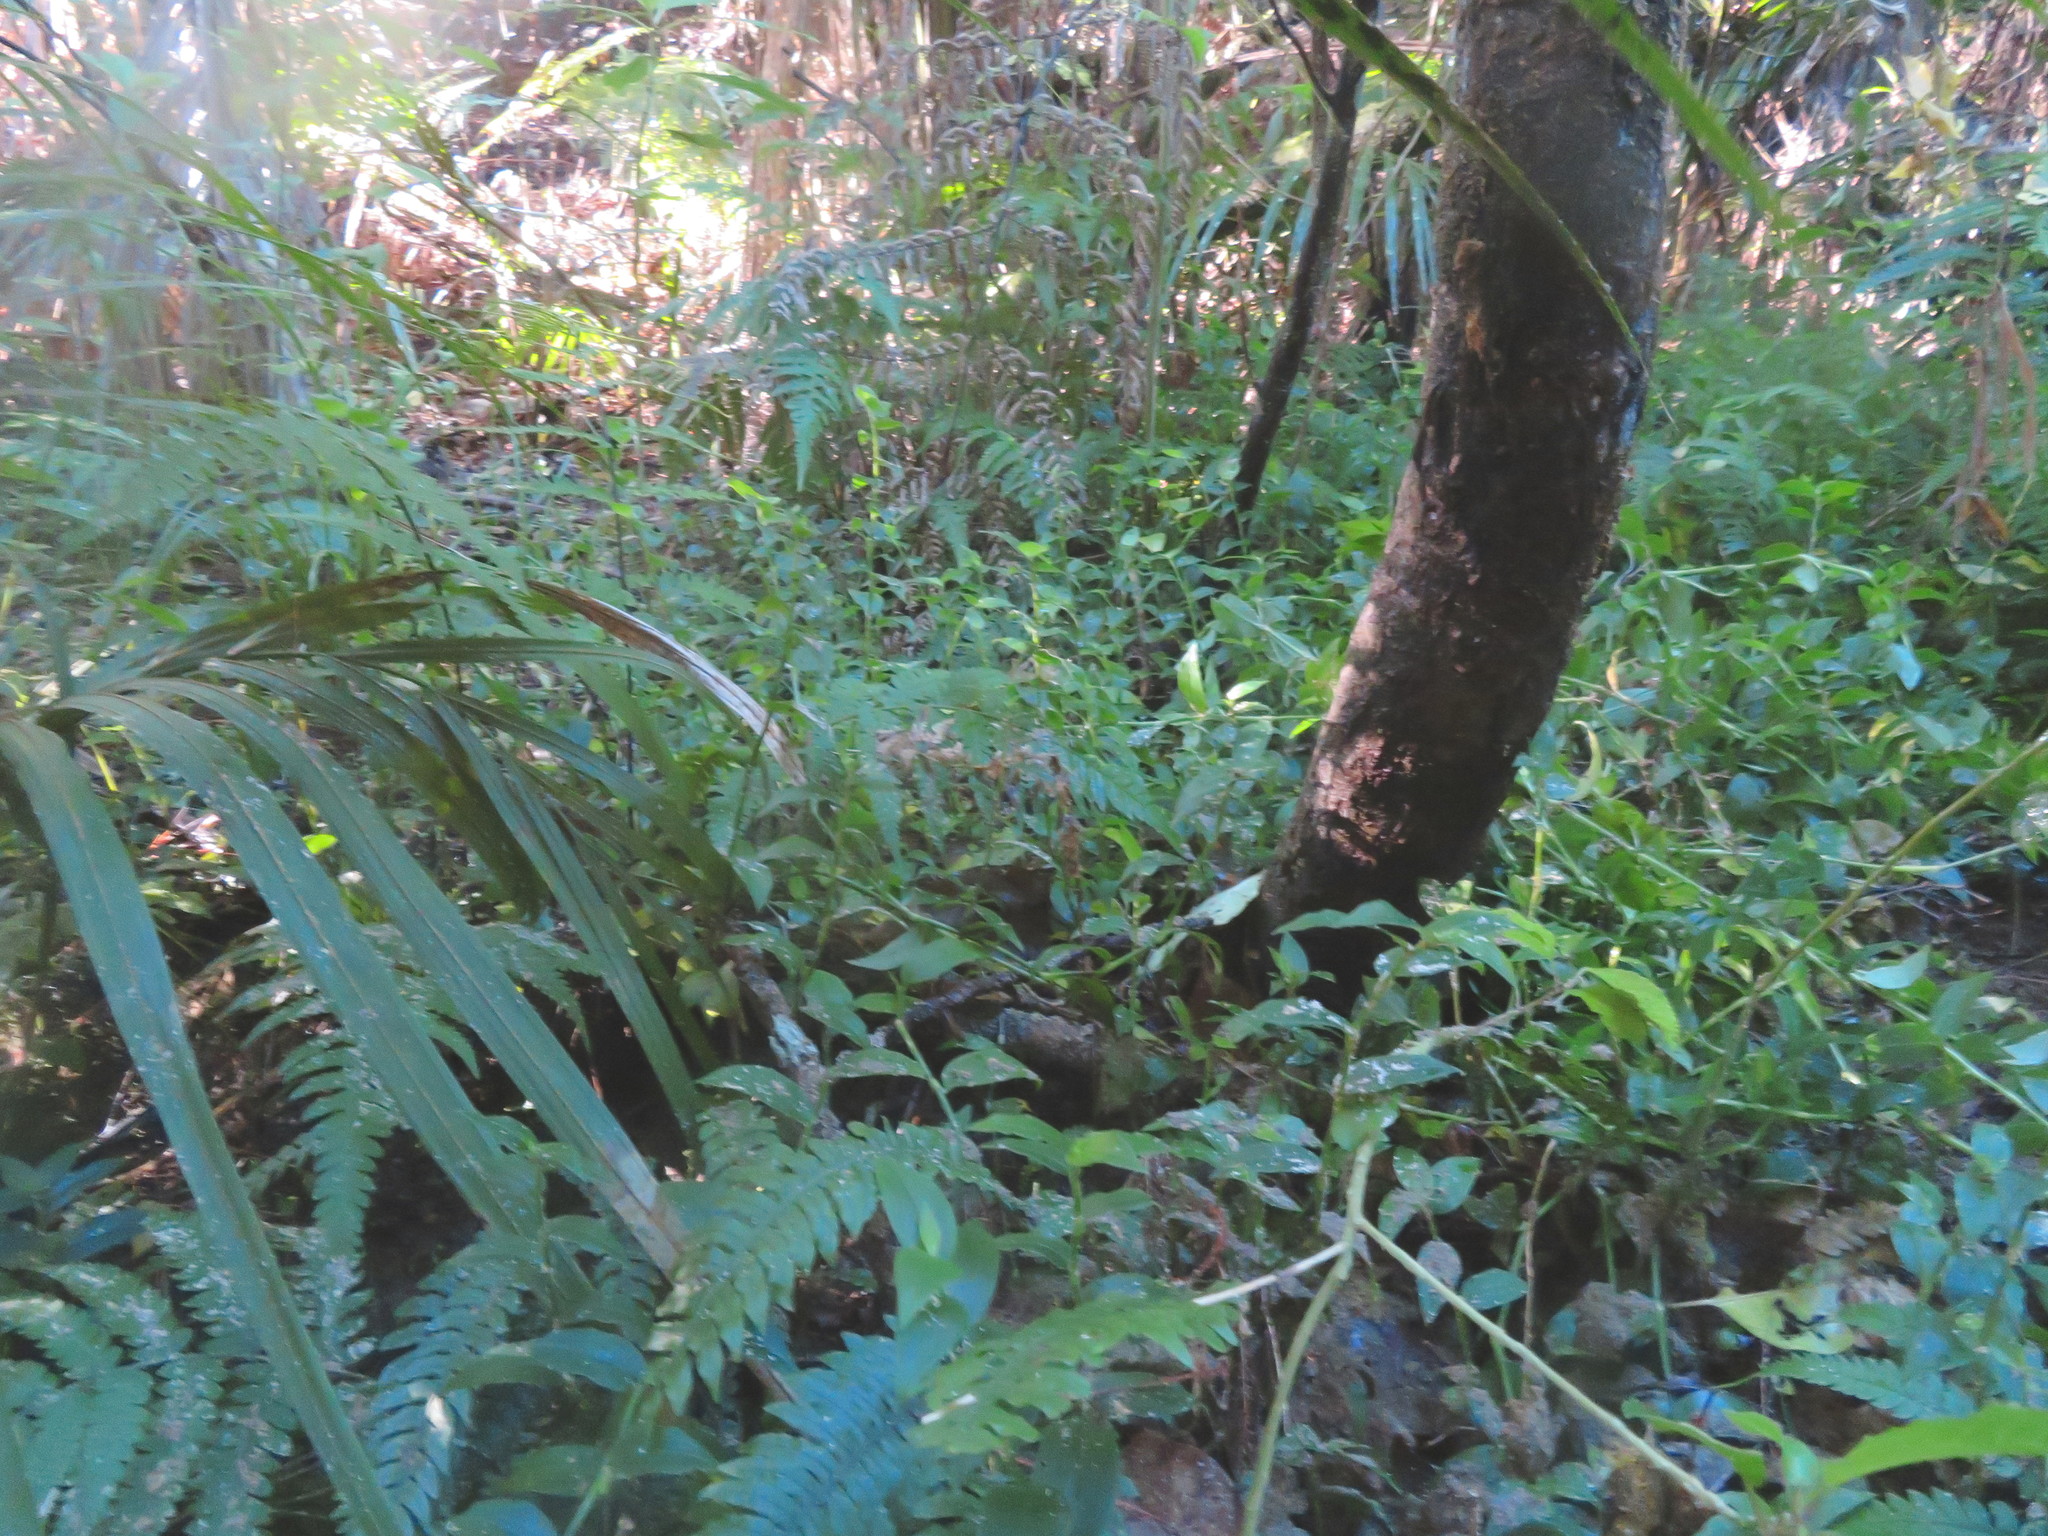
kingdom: Plantae
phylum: Tracheophyta
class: Liliopsida
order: Arecales
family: Arecaceae
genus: Rhopalostylis
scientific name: Rhopalostylis sapida
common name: Feather-duster palm
